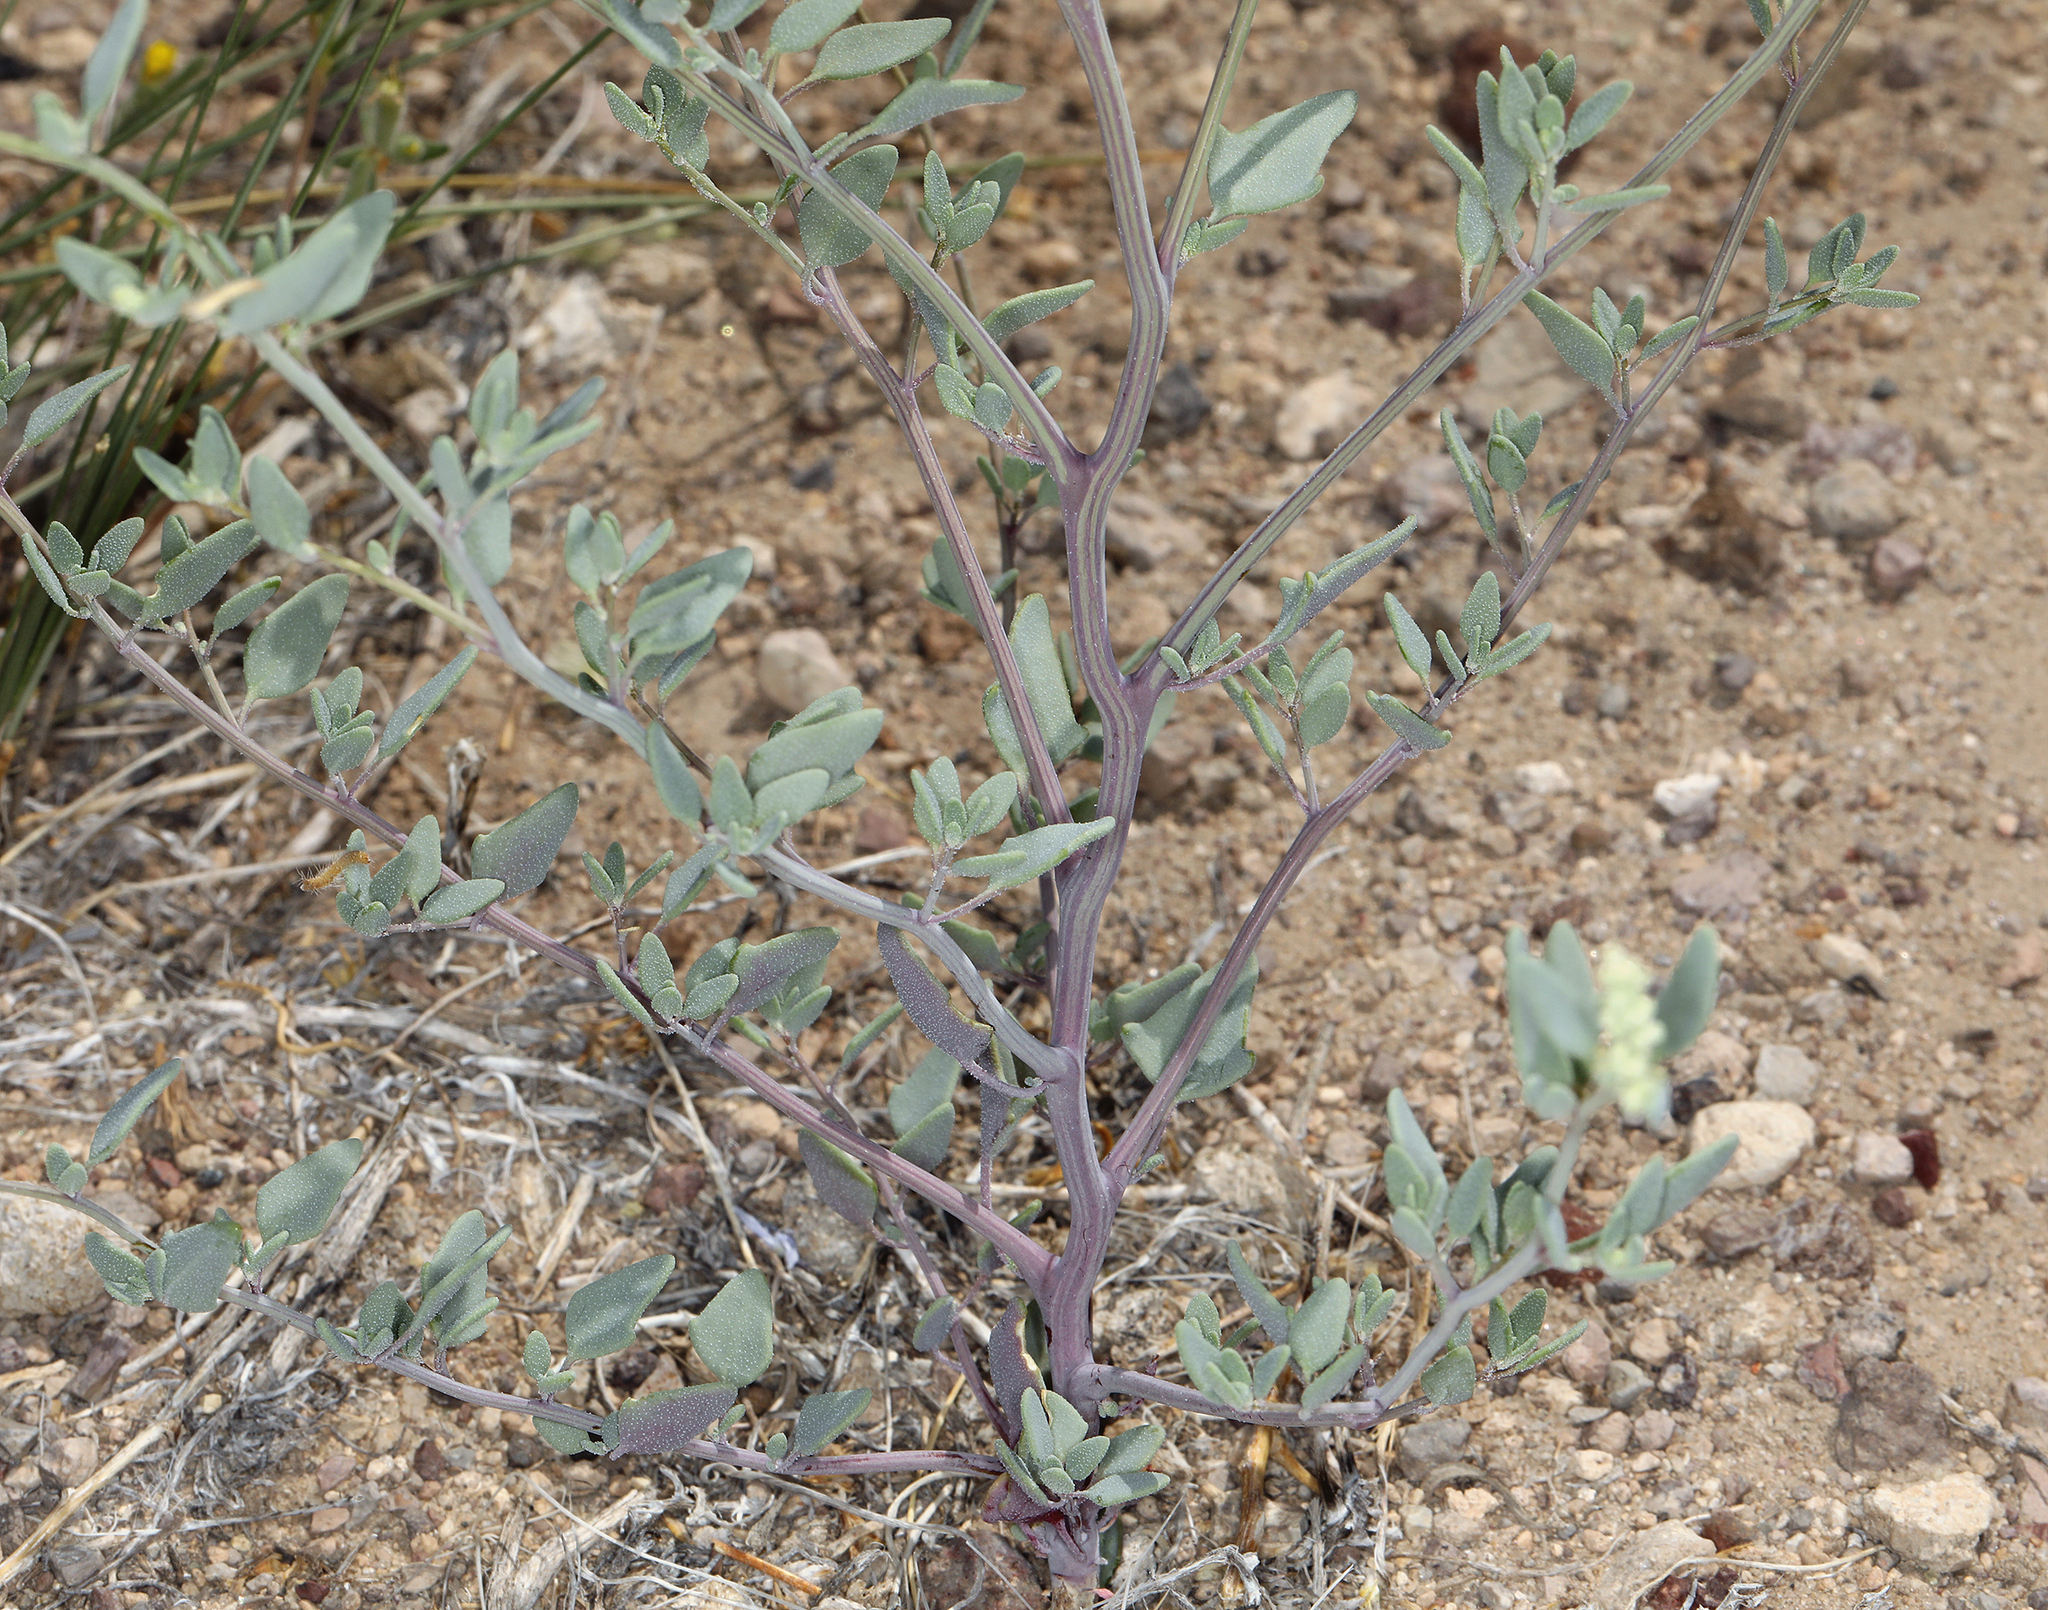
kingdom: Plantae
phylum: Tracheophyta
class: Magnoliopsida
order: Caryophyllales
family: Amaranthaceae
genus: Chenopodium
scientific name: Chenopodium nevadense
